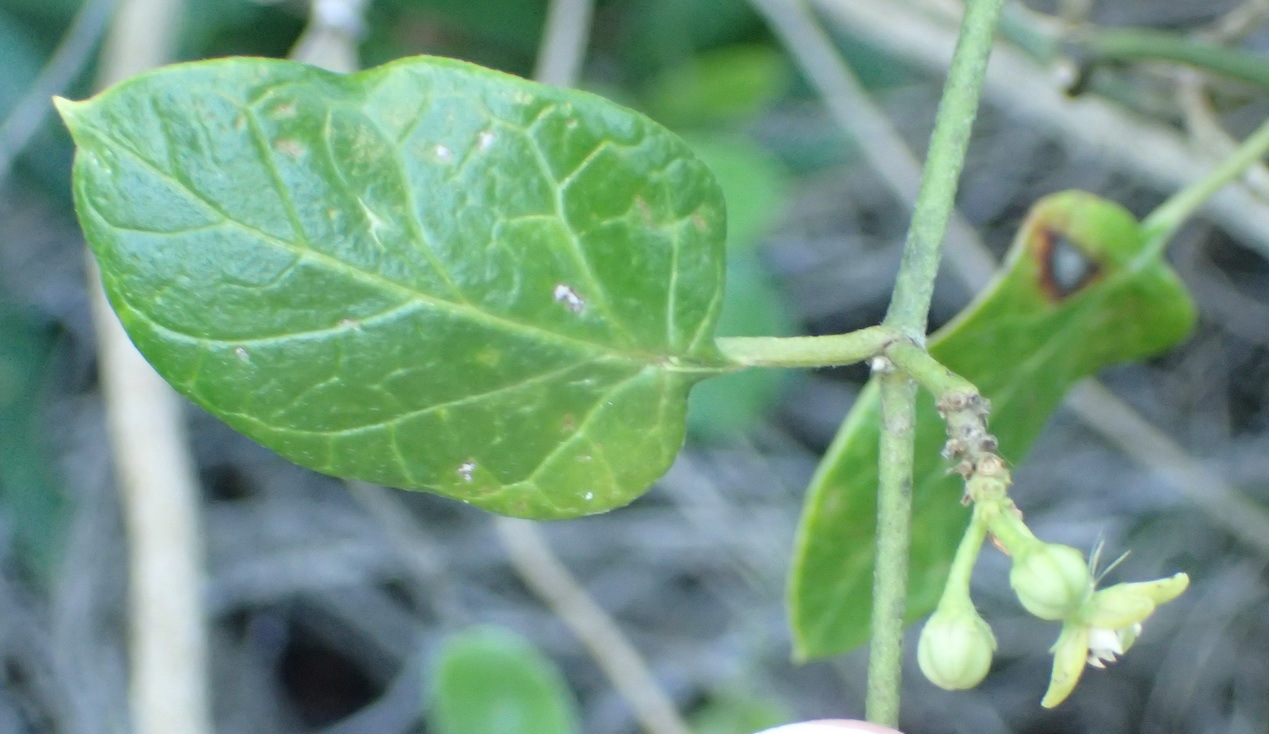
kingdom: Plantae
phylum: Tracheophyta
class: Magnoliopsida
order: Gentianales
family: Apocynaceae
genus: Cynanchum
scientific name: Cynanchum obtusifolium
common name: Monkey-rope
